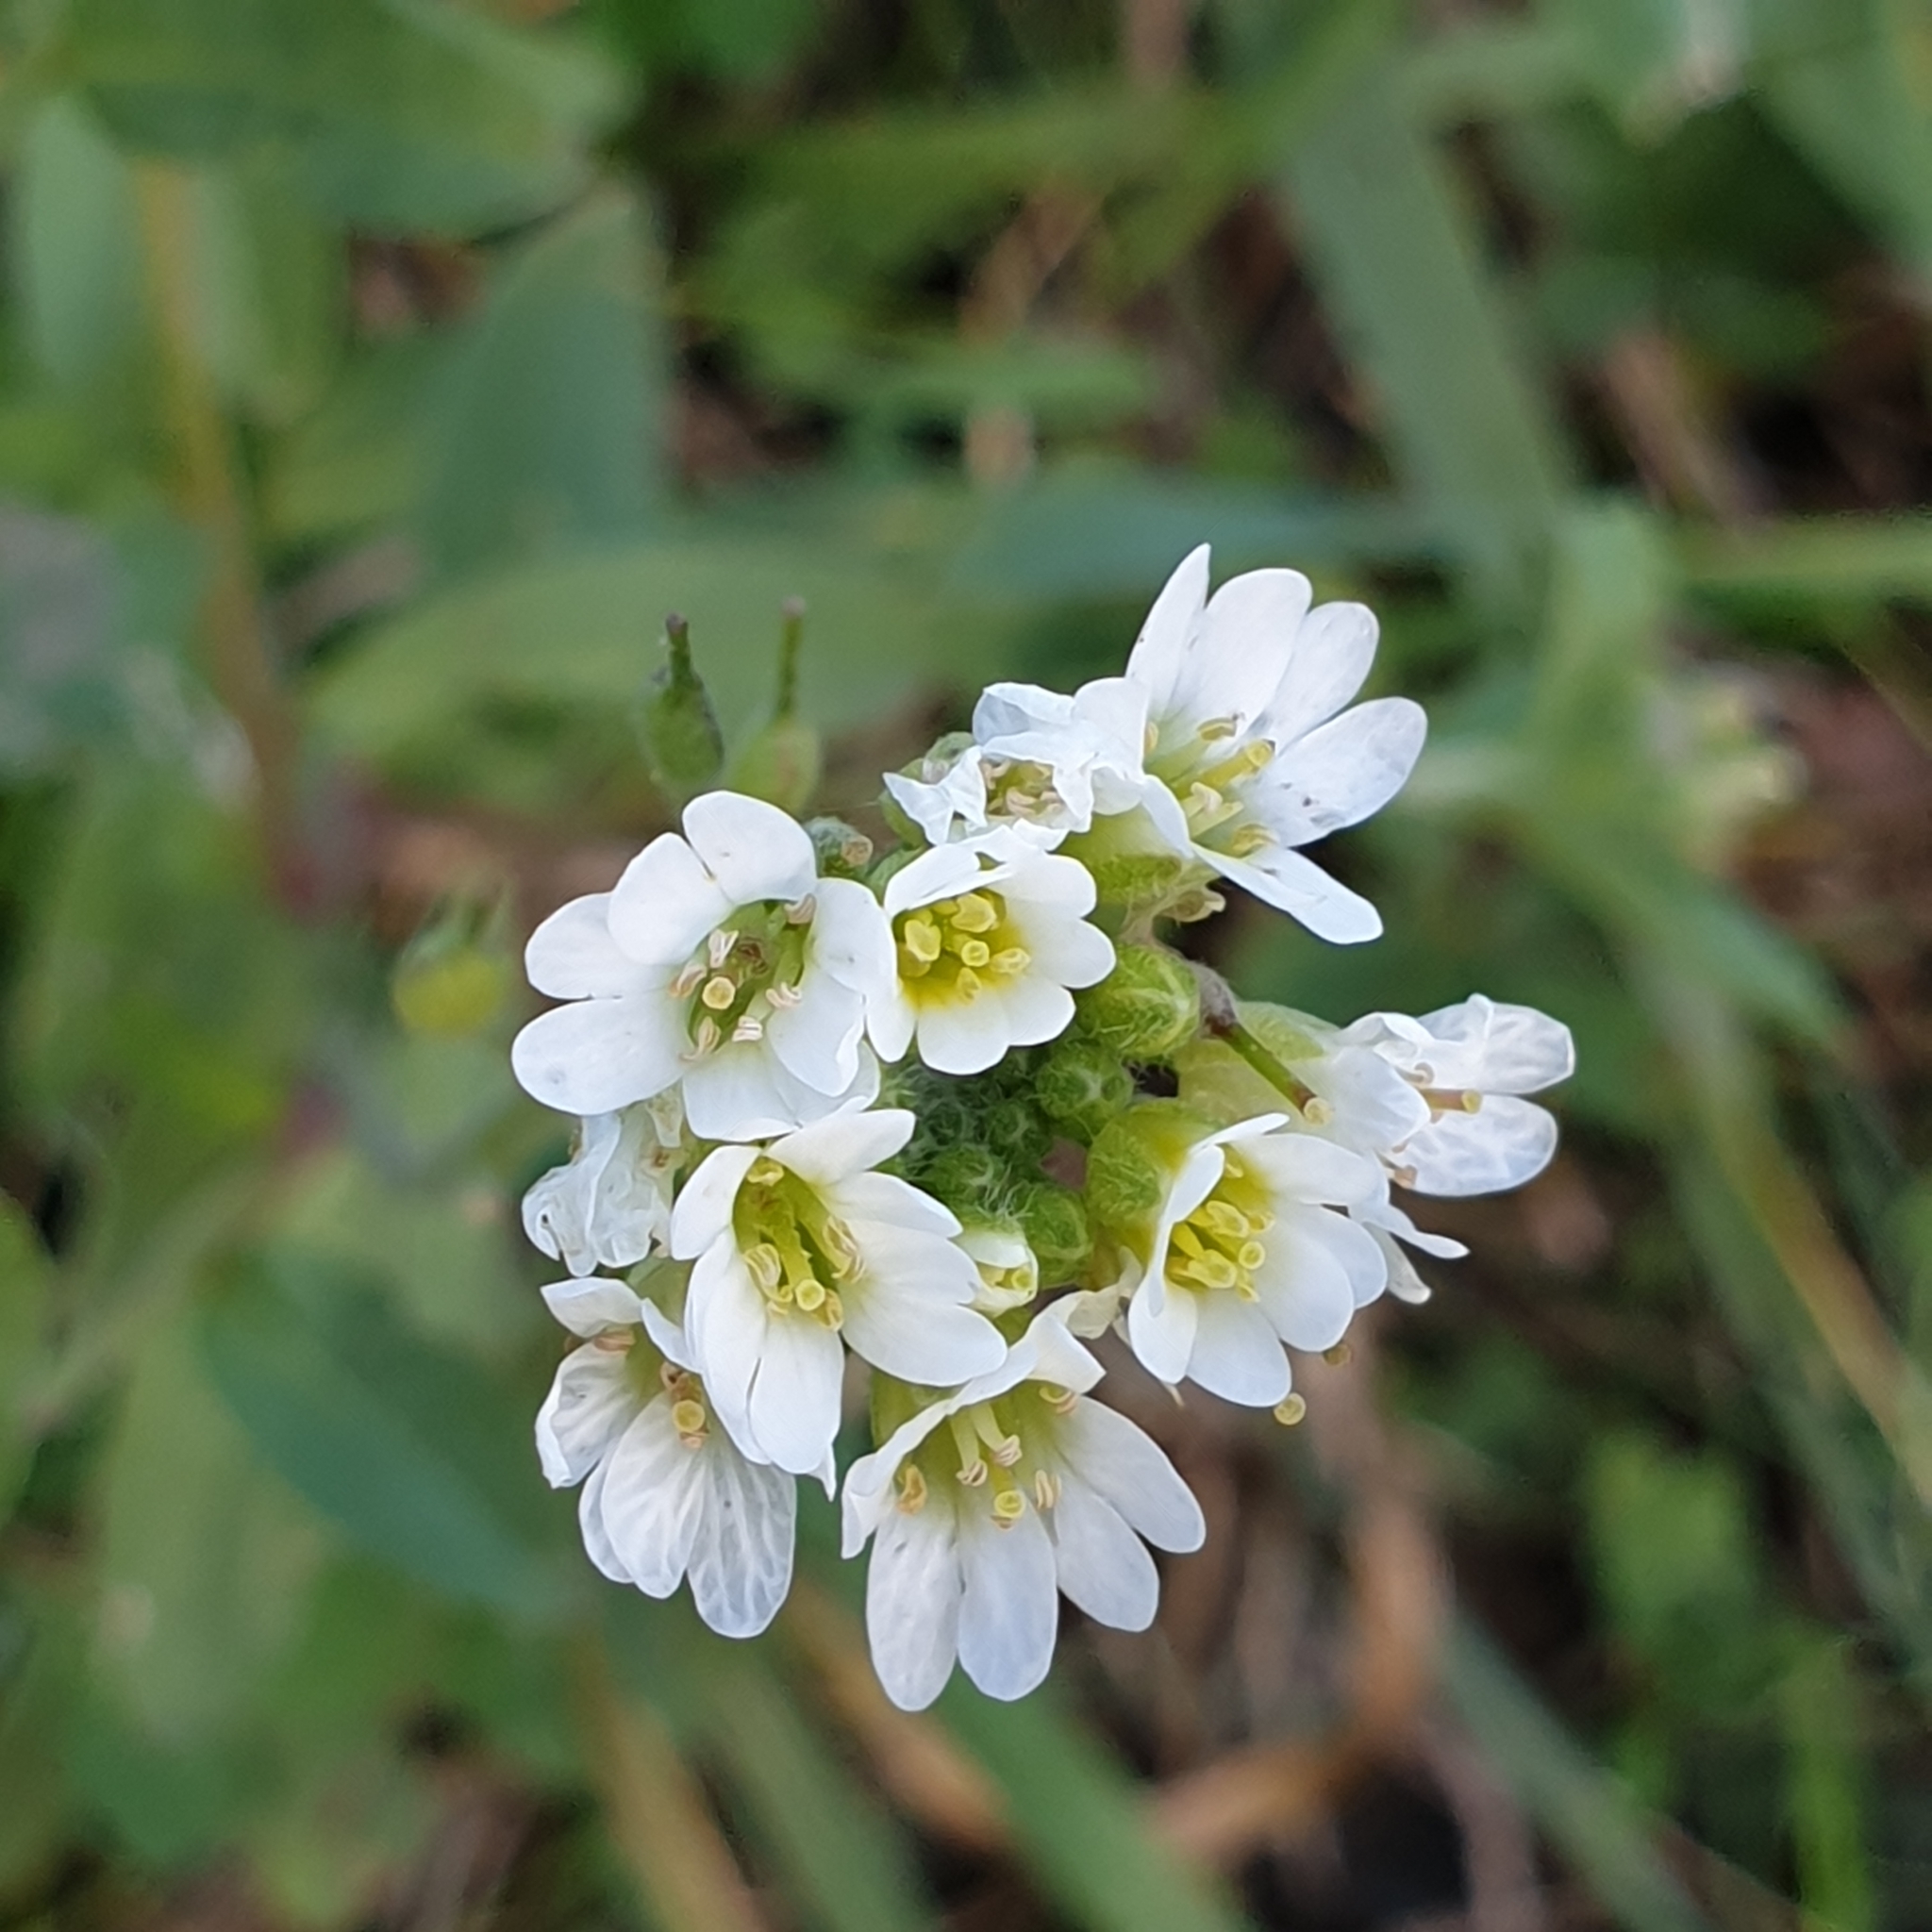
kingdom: Plantae
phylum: Tracheophyta
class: Magnoliopsida
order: Brassicales
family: Brassicaceae
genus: Berteroa
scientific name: Berteroa incana
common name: Hoary alison
